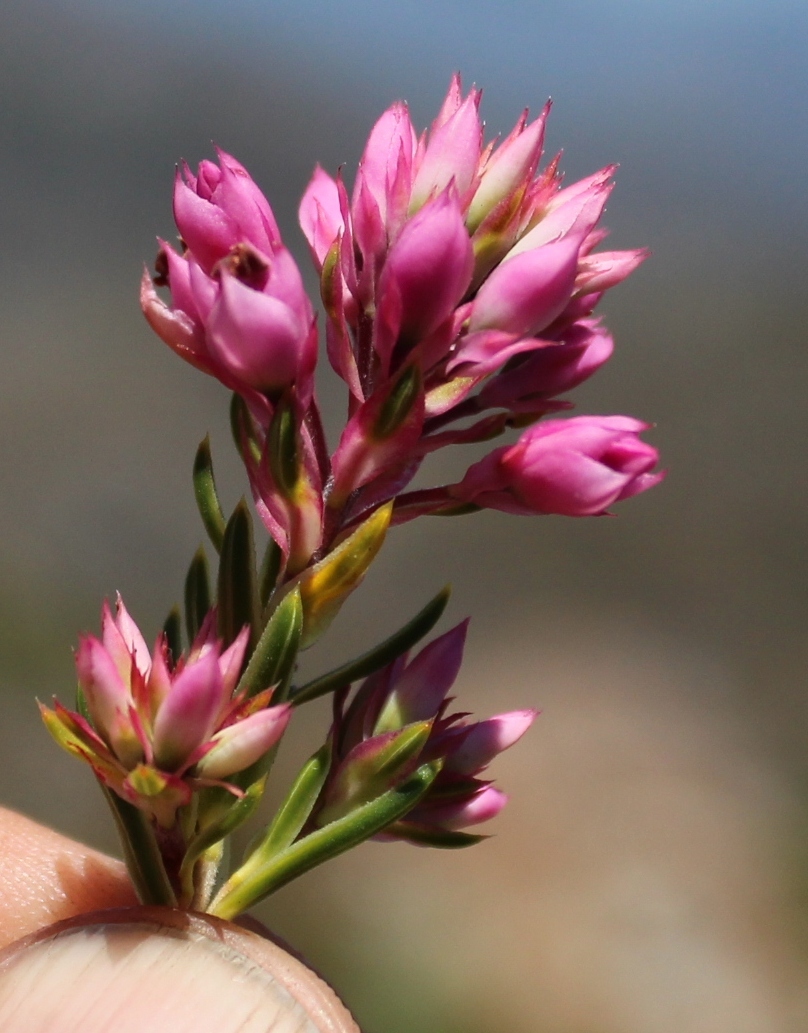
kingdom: Plantae
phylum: Tracheophyta
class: Magnoliopsida
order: Ericales
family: Ericaceae
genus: Erica
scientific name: Erica taxifolia
